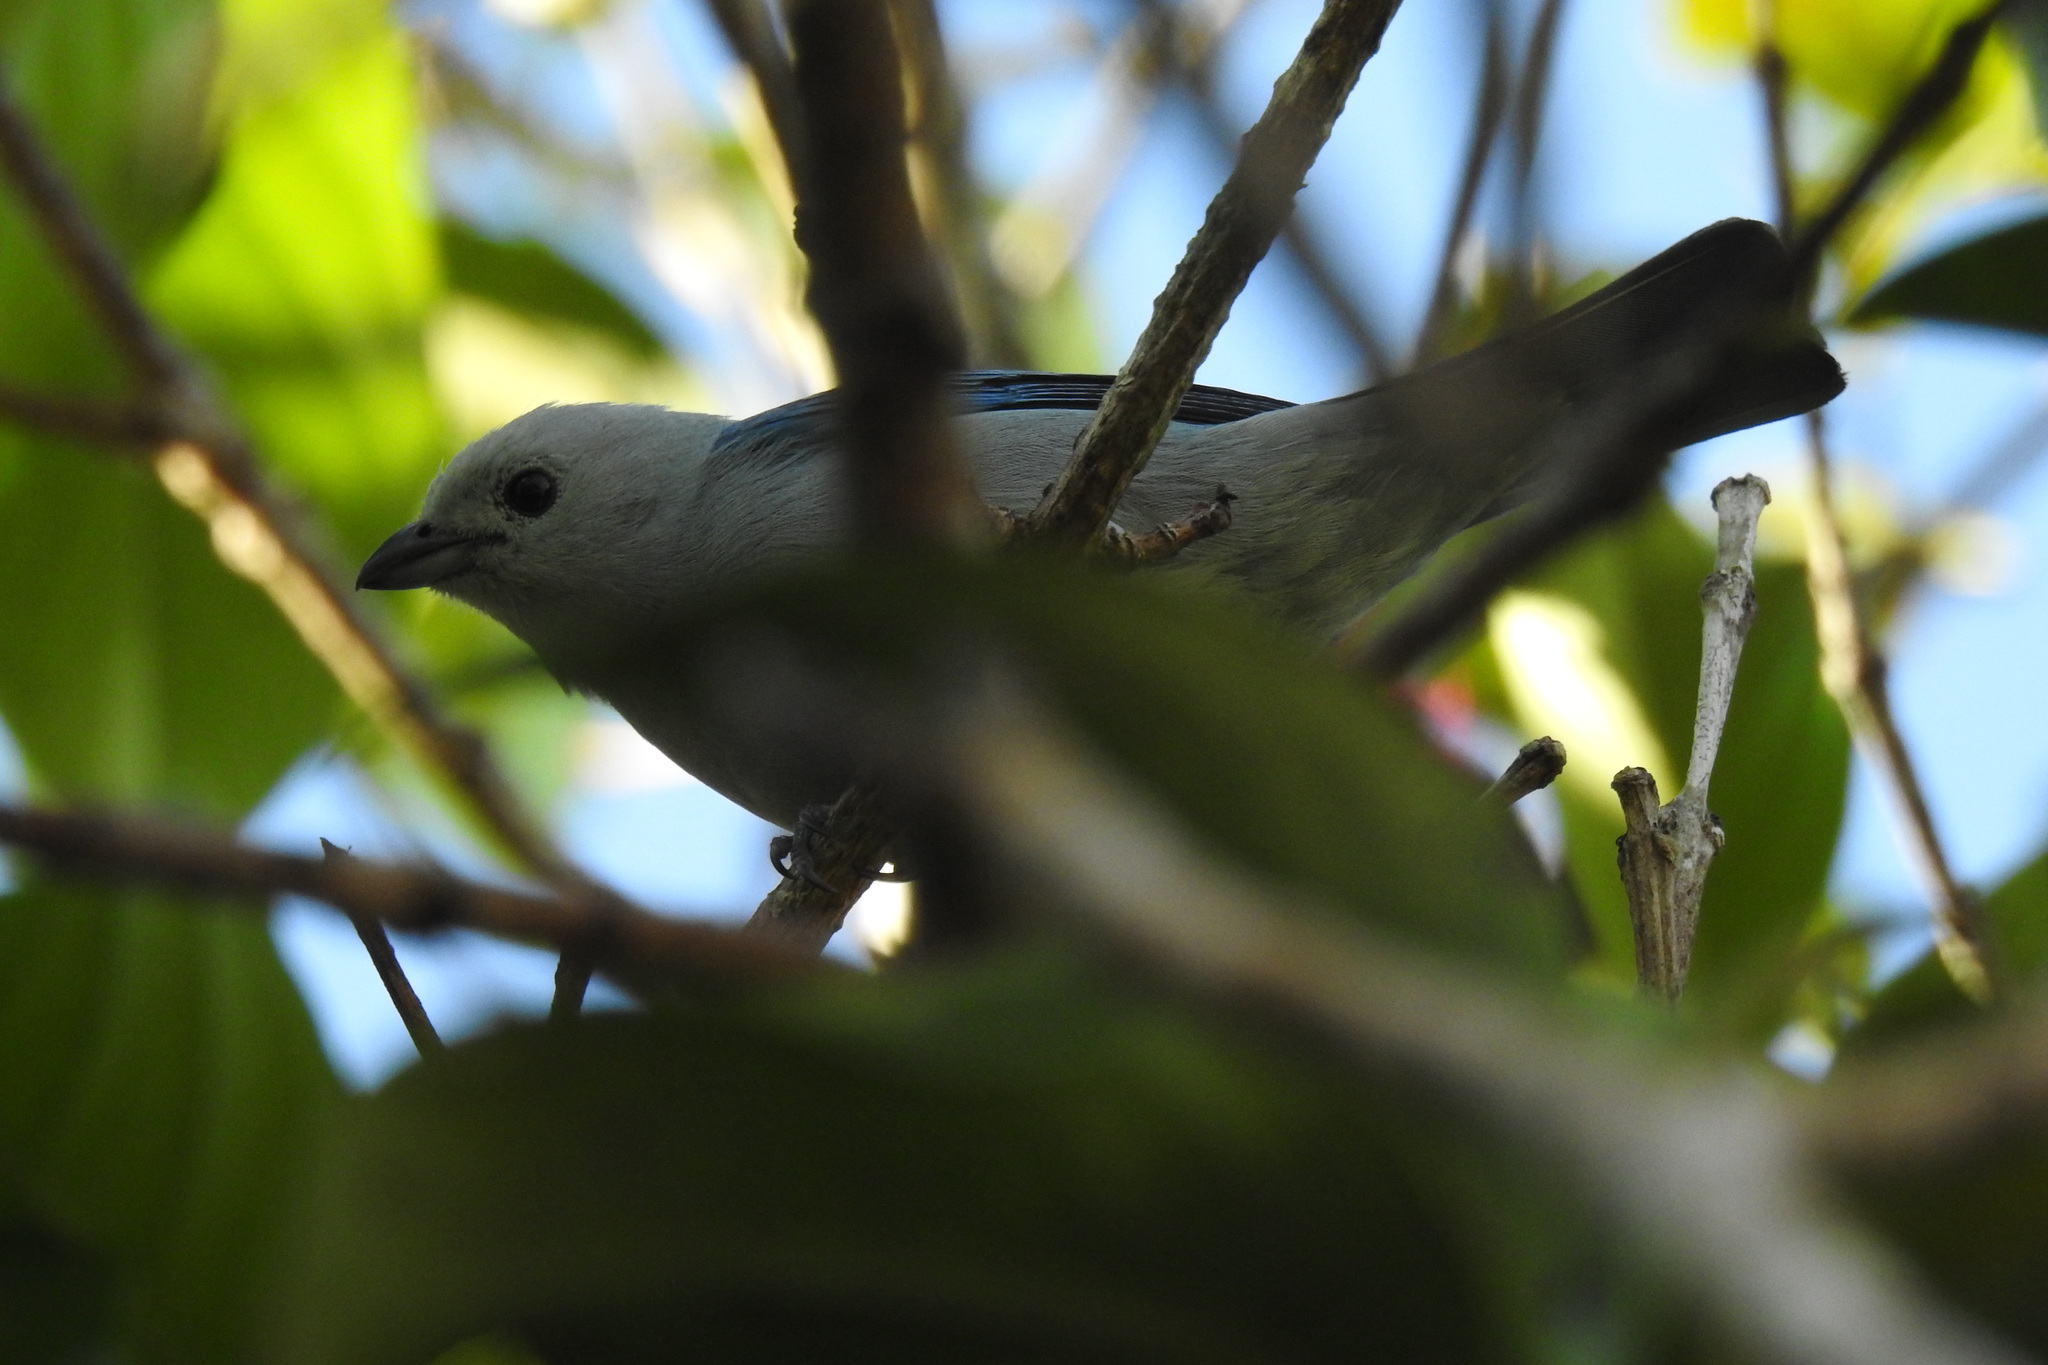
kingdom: Animalia
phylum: Chordata
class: Aves
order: Passeriformes
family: Thraupidae
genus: Thraupis
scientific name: Thraupis episcopus
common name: Blue-grey tanager
